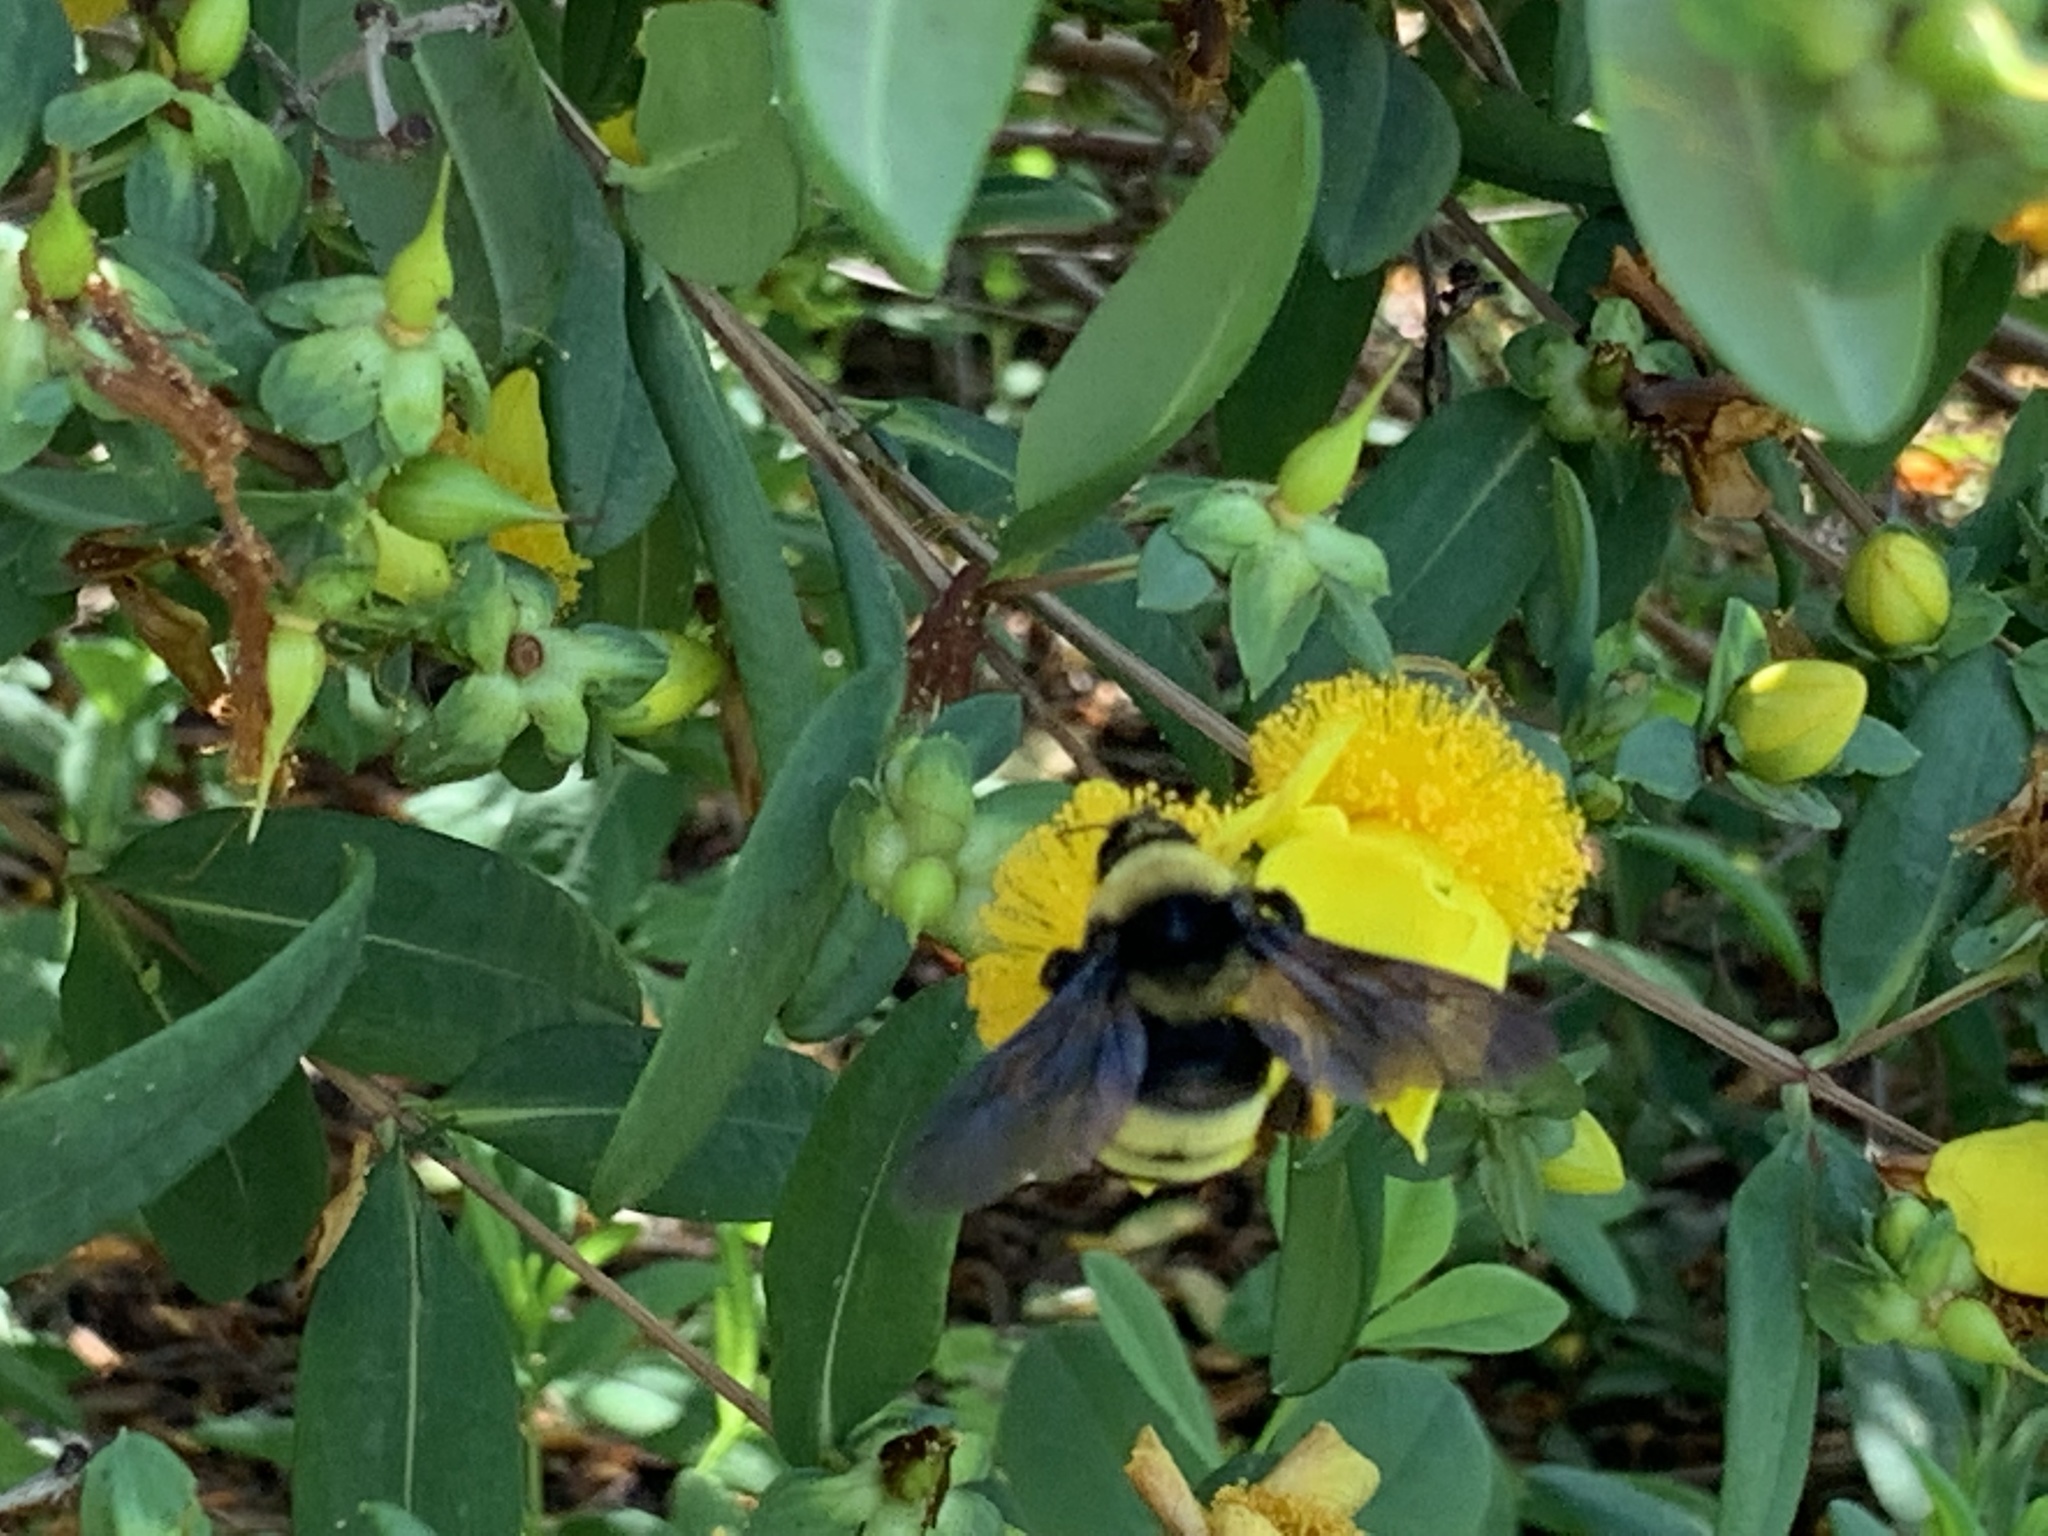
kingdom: Animalia
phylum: Arthropoda
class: Insecta
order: Hymenoptera
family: Apidae
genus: Bombus
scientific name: Bombus auricomus
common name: Black and gold bumble bee
